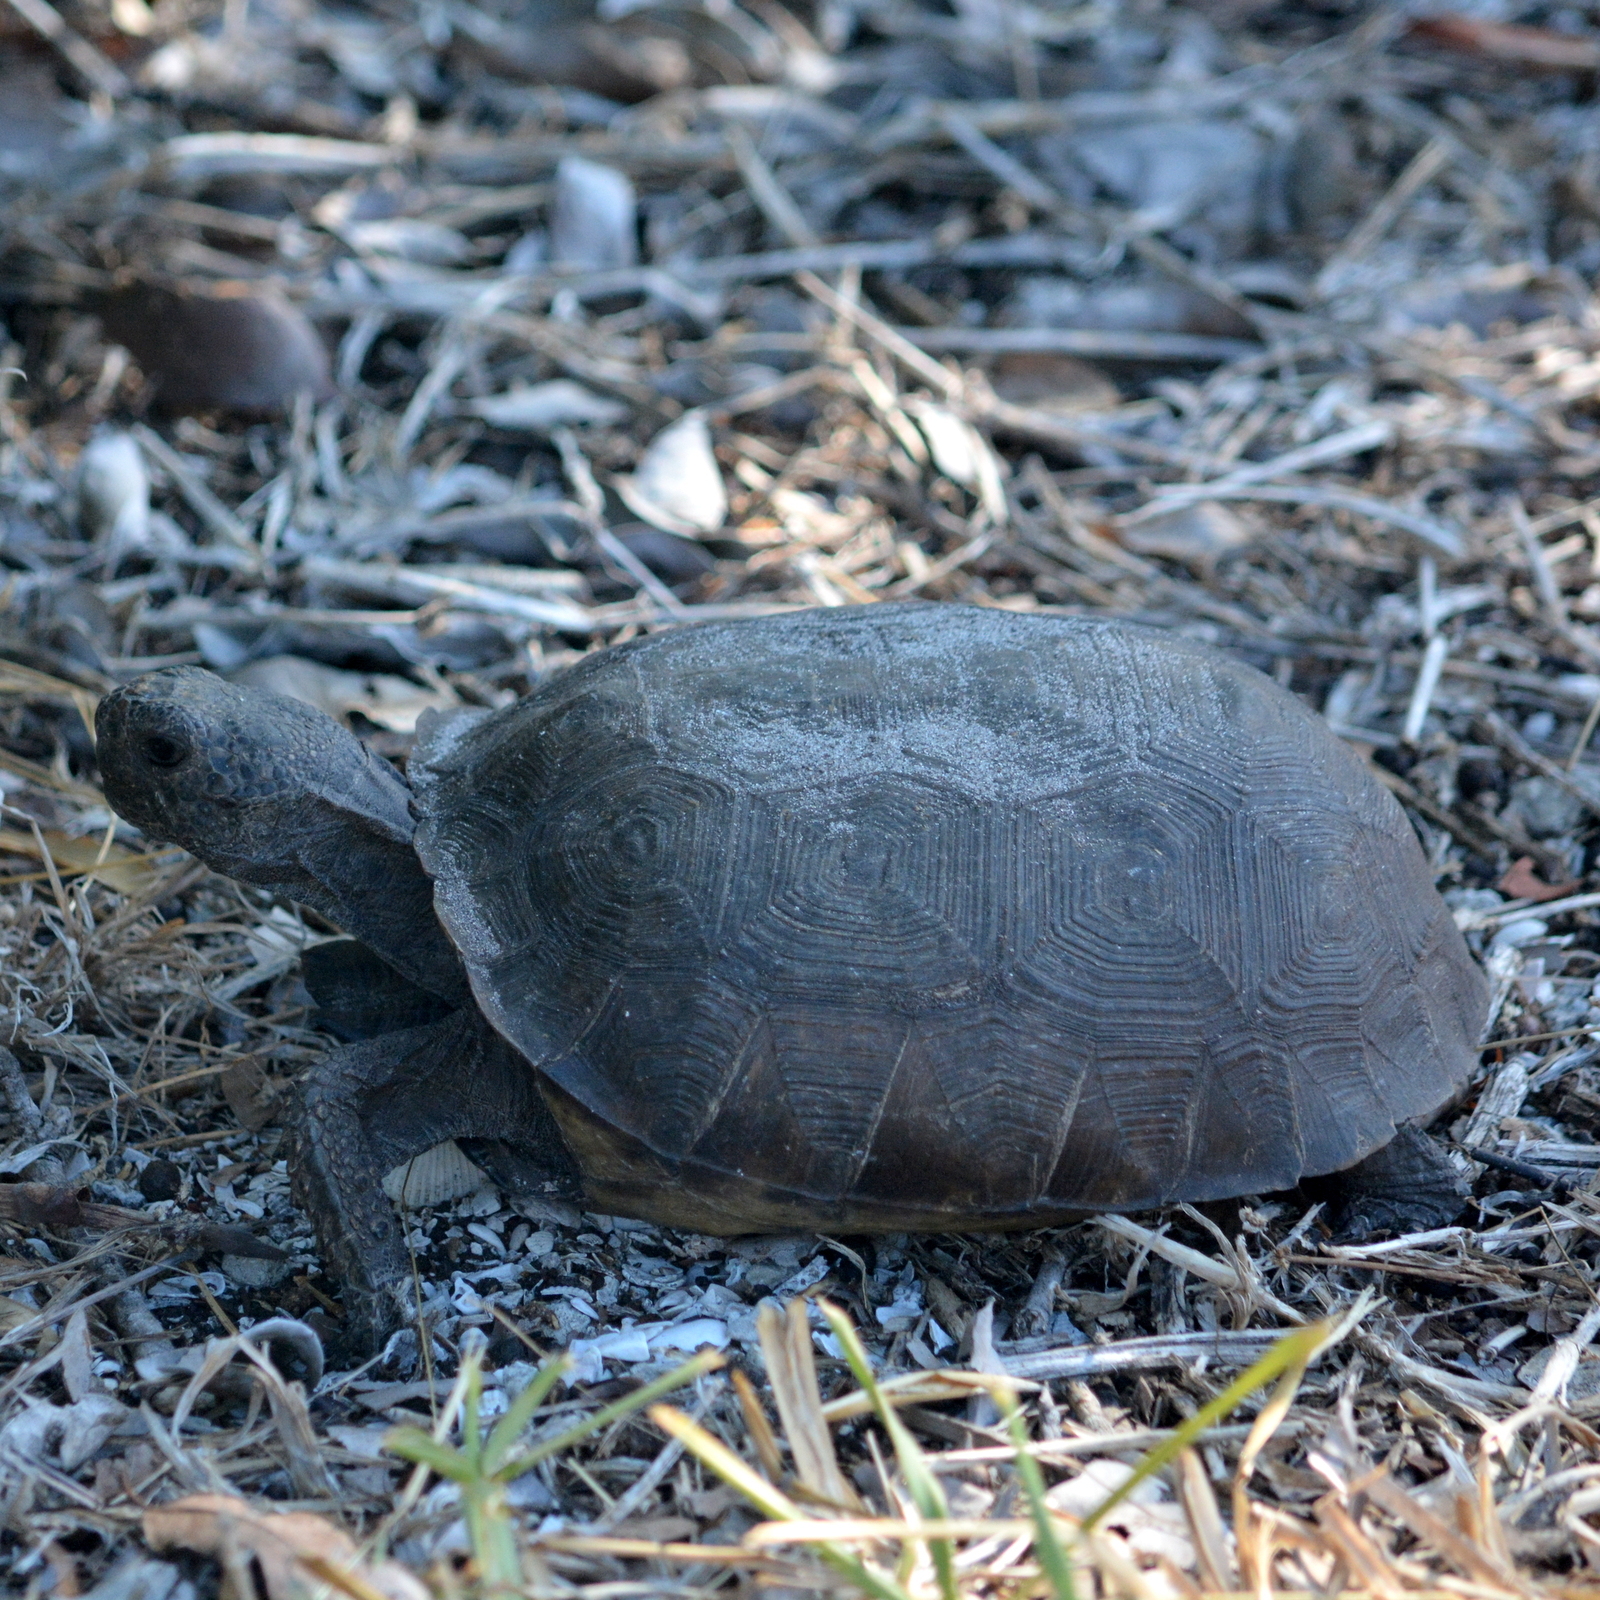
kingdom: Animalia
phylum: Chordata
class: Testudines
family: Testudinidae
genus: Gopherus
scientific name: Gopherus polyphemus
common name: Florida gopher tortoise
